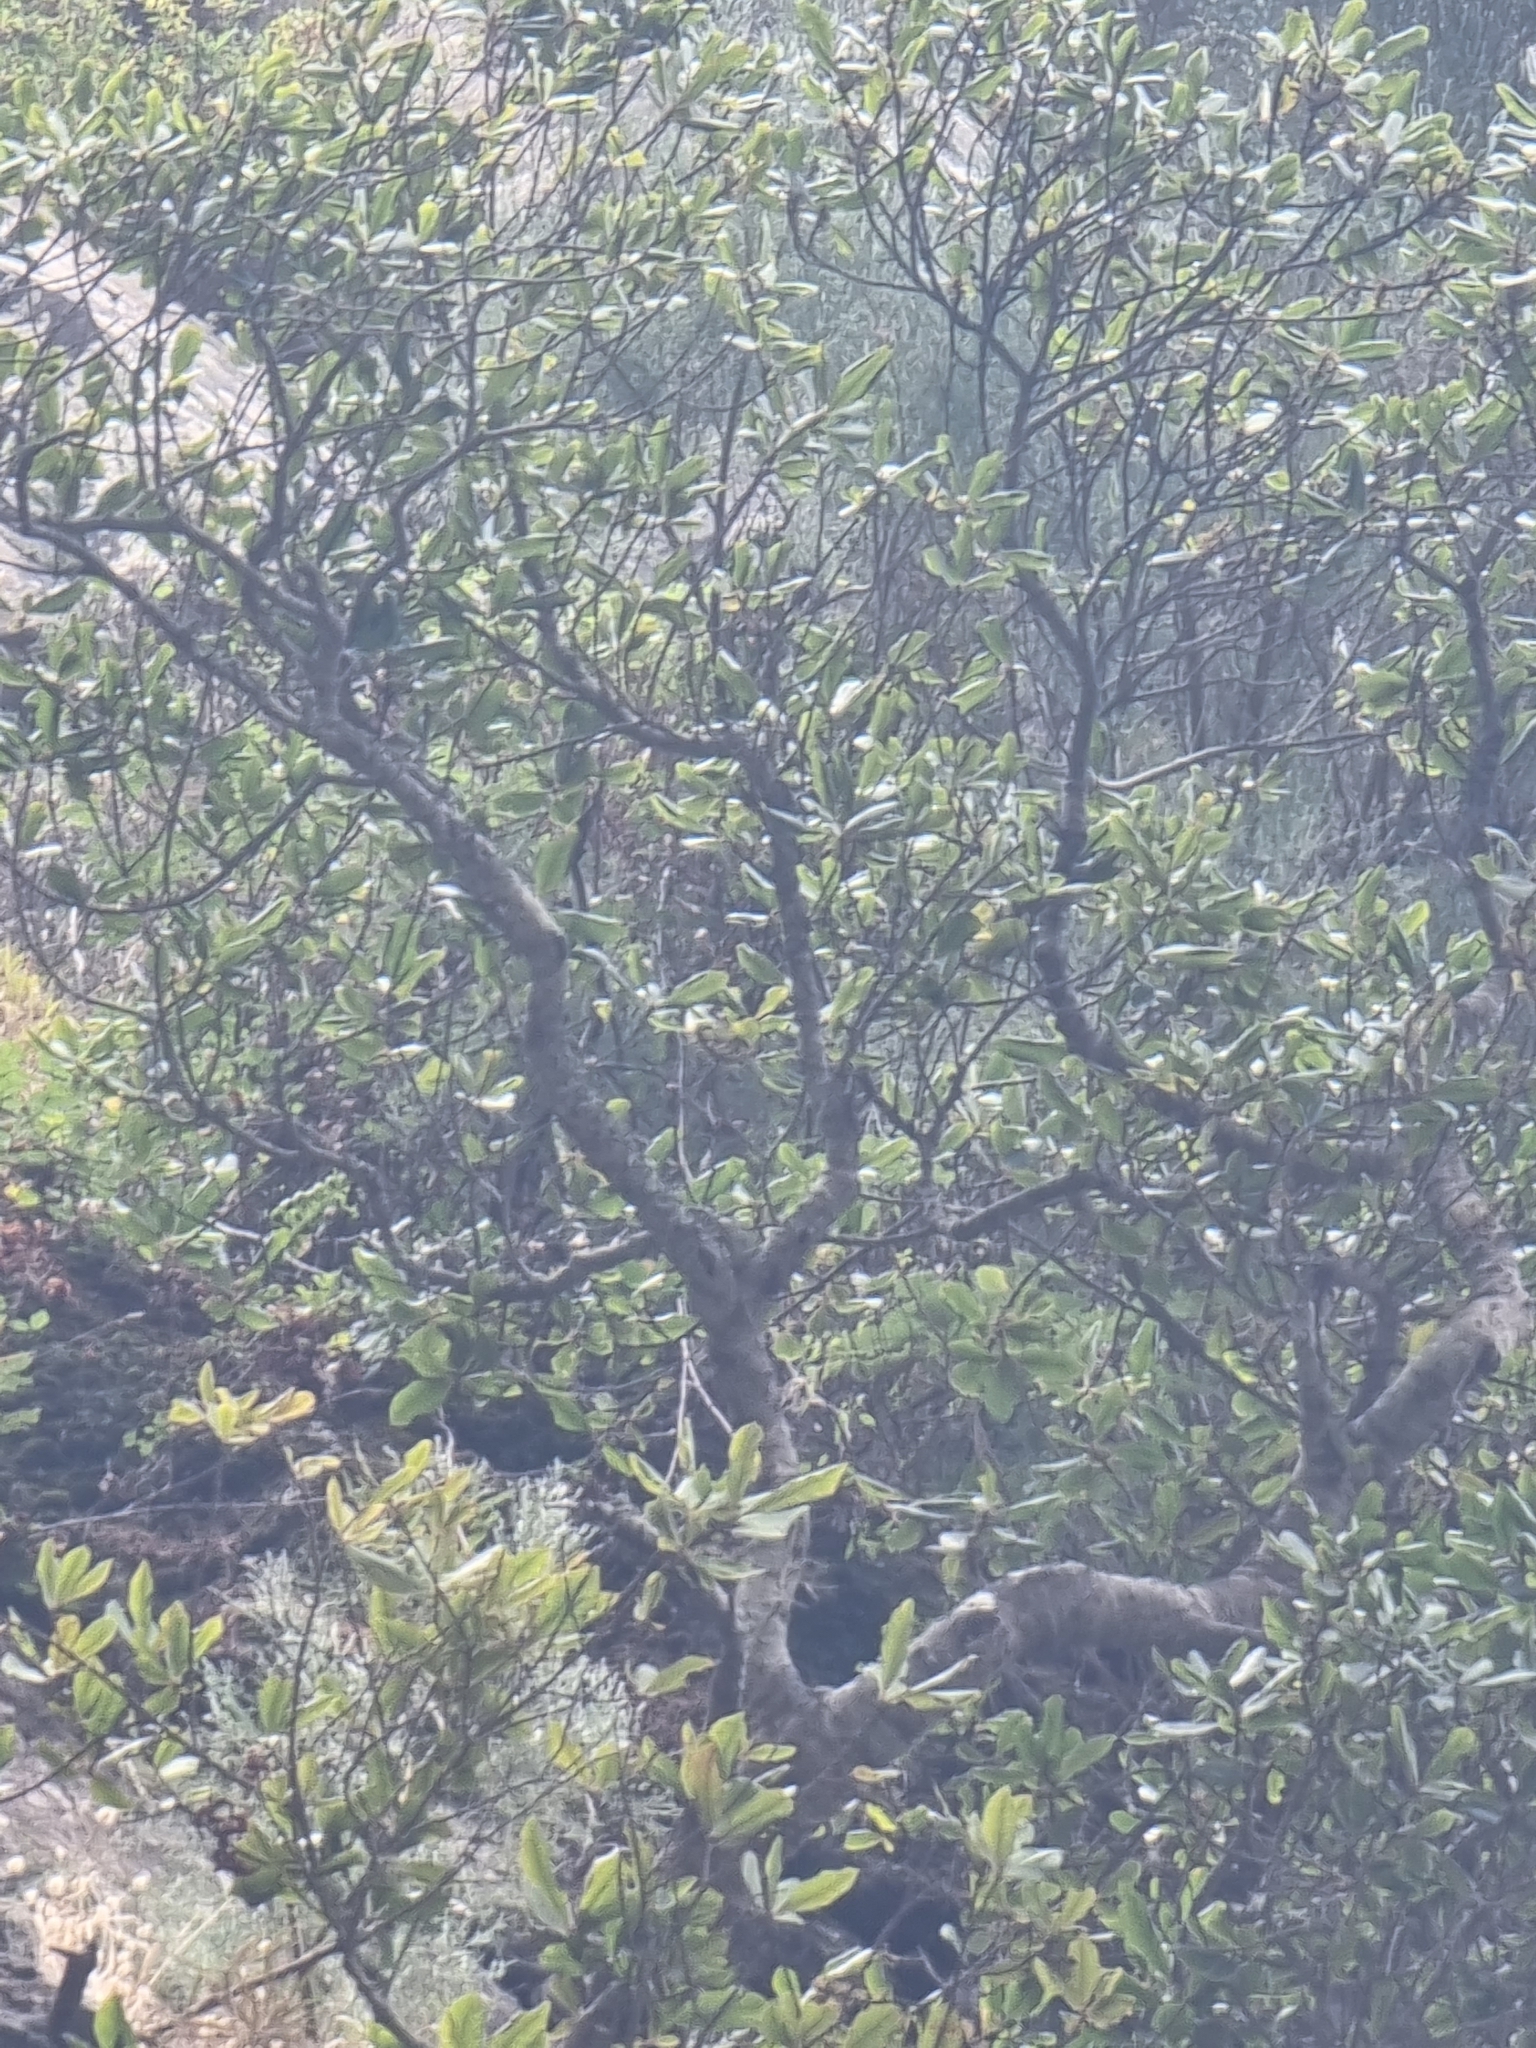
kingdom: Plantae
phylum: Tracheophyta
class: Magnoliopsida
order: Ericales
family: Clethraceae
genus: Clethra
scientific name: Clethra arborea
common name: Lily-of-the-valley-tree
